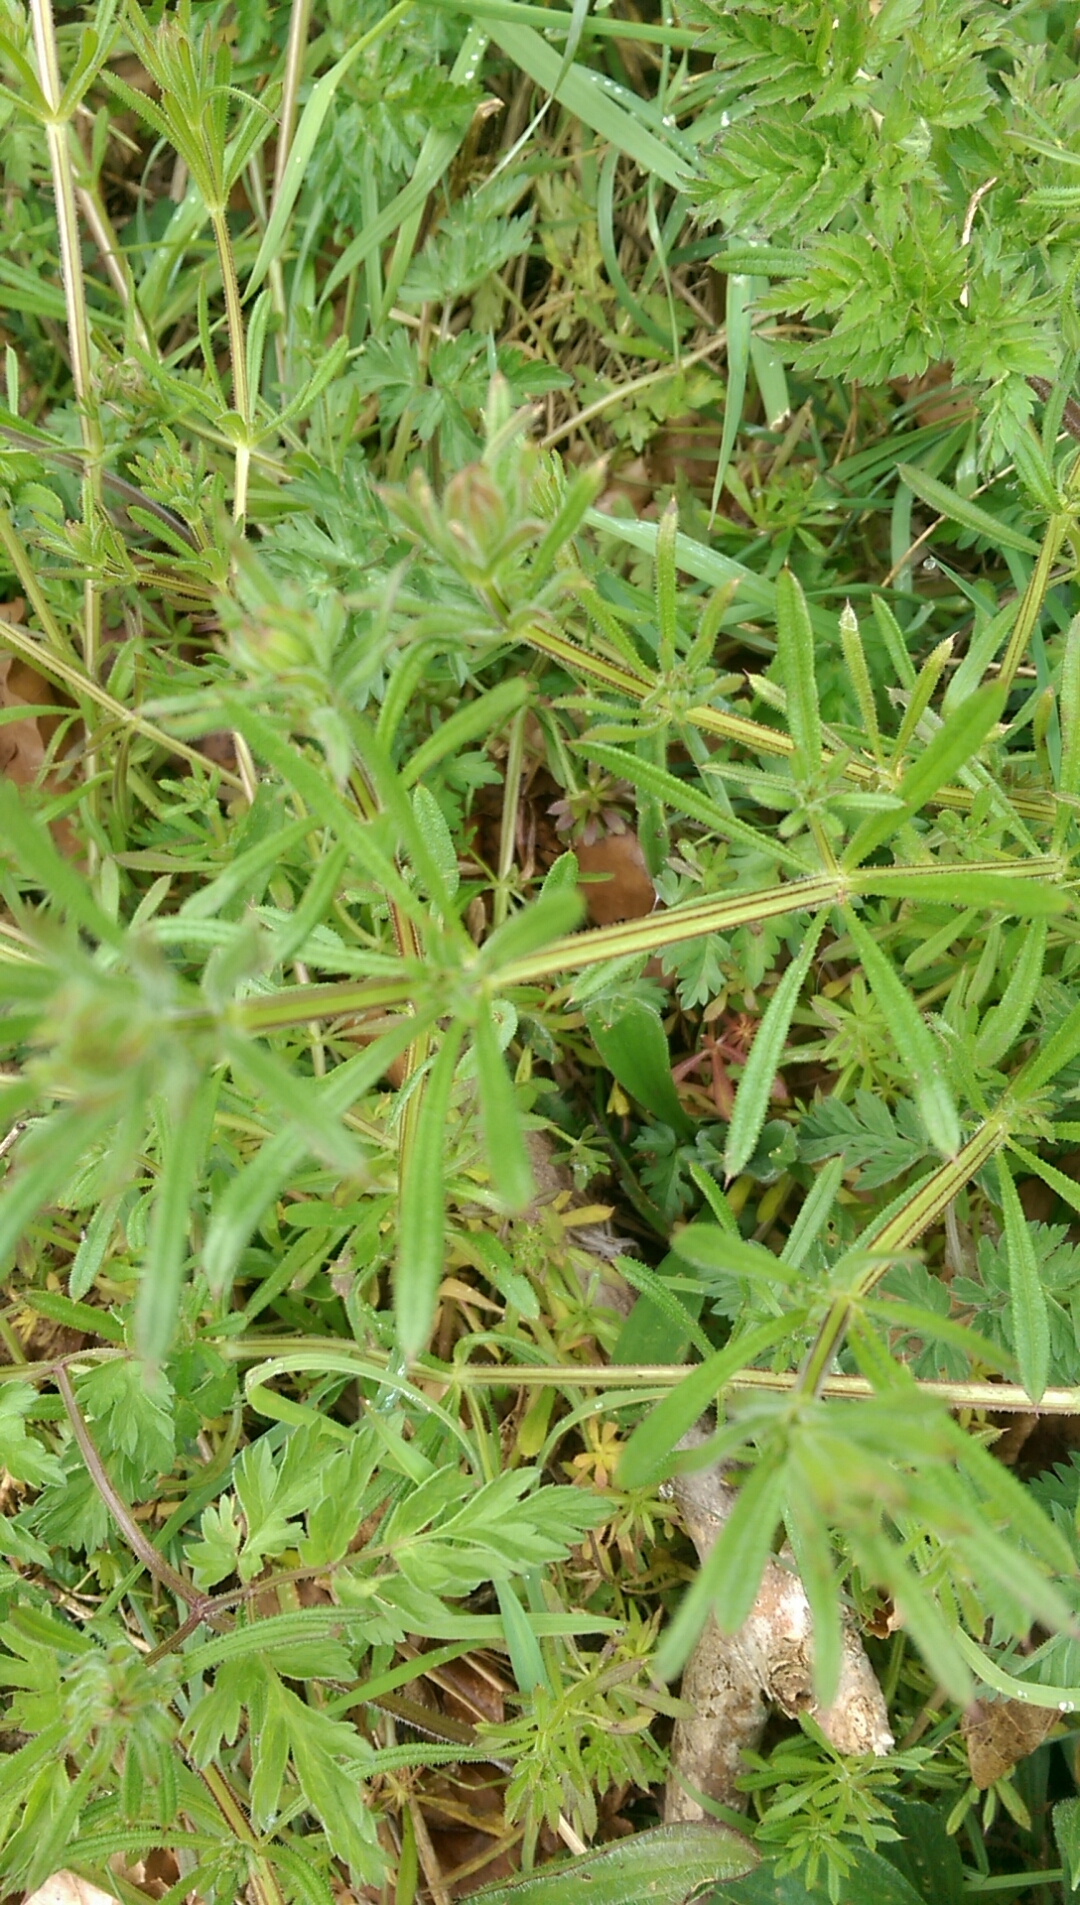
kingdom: Plantae
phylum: Tracheophyta
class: Magnoliopsida
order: Gentianales
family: Rubiaceae
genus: Galium
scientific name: Galium aparine
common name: Cleavers
